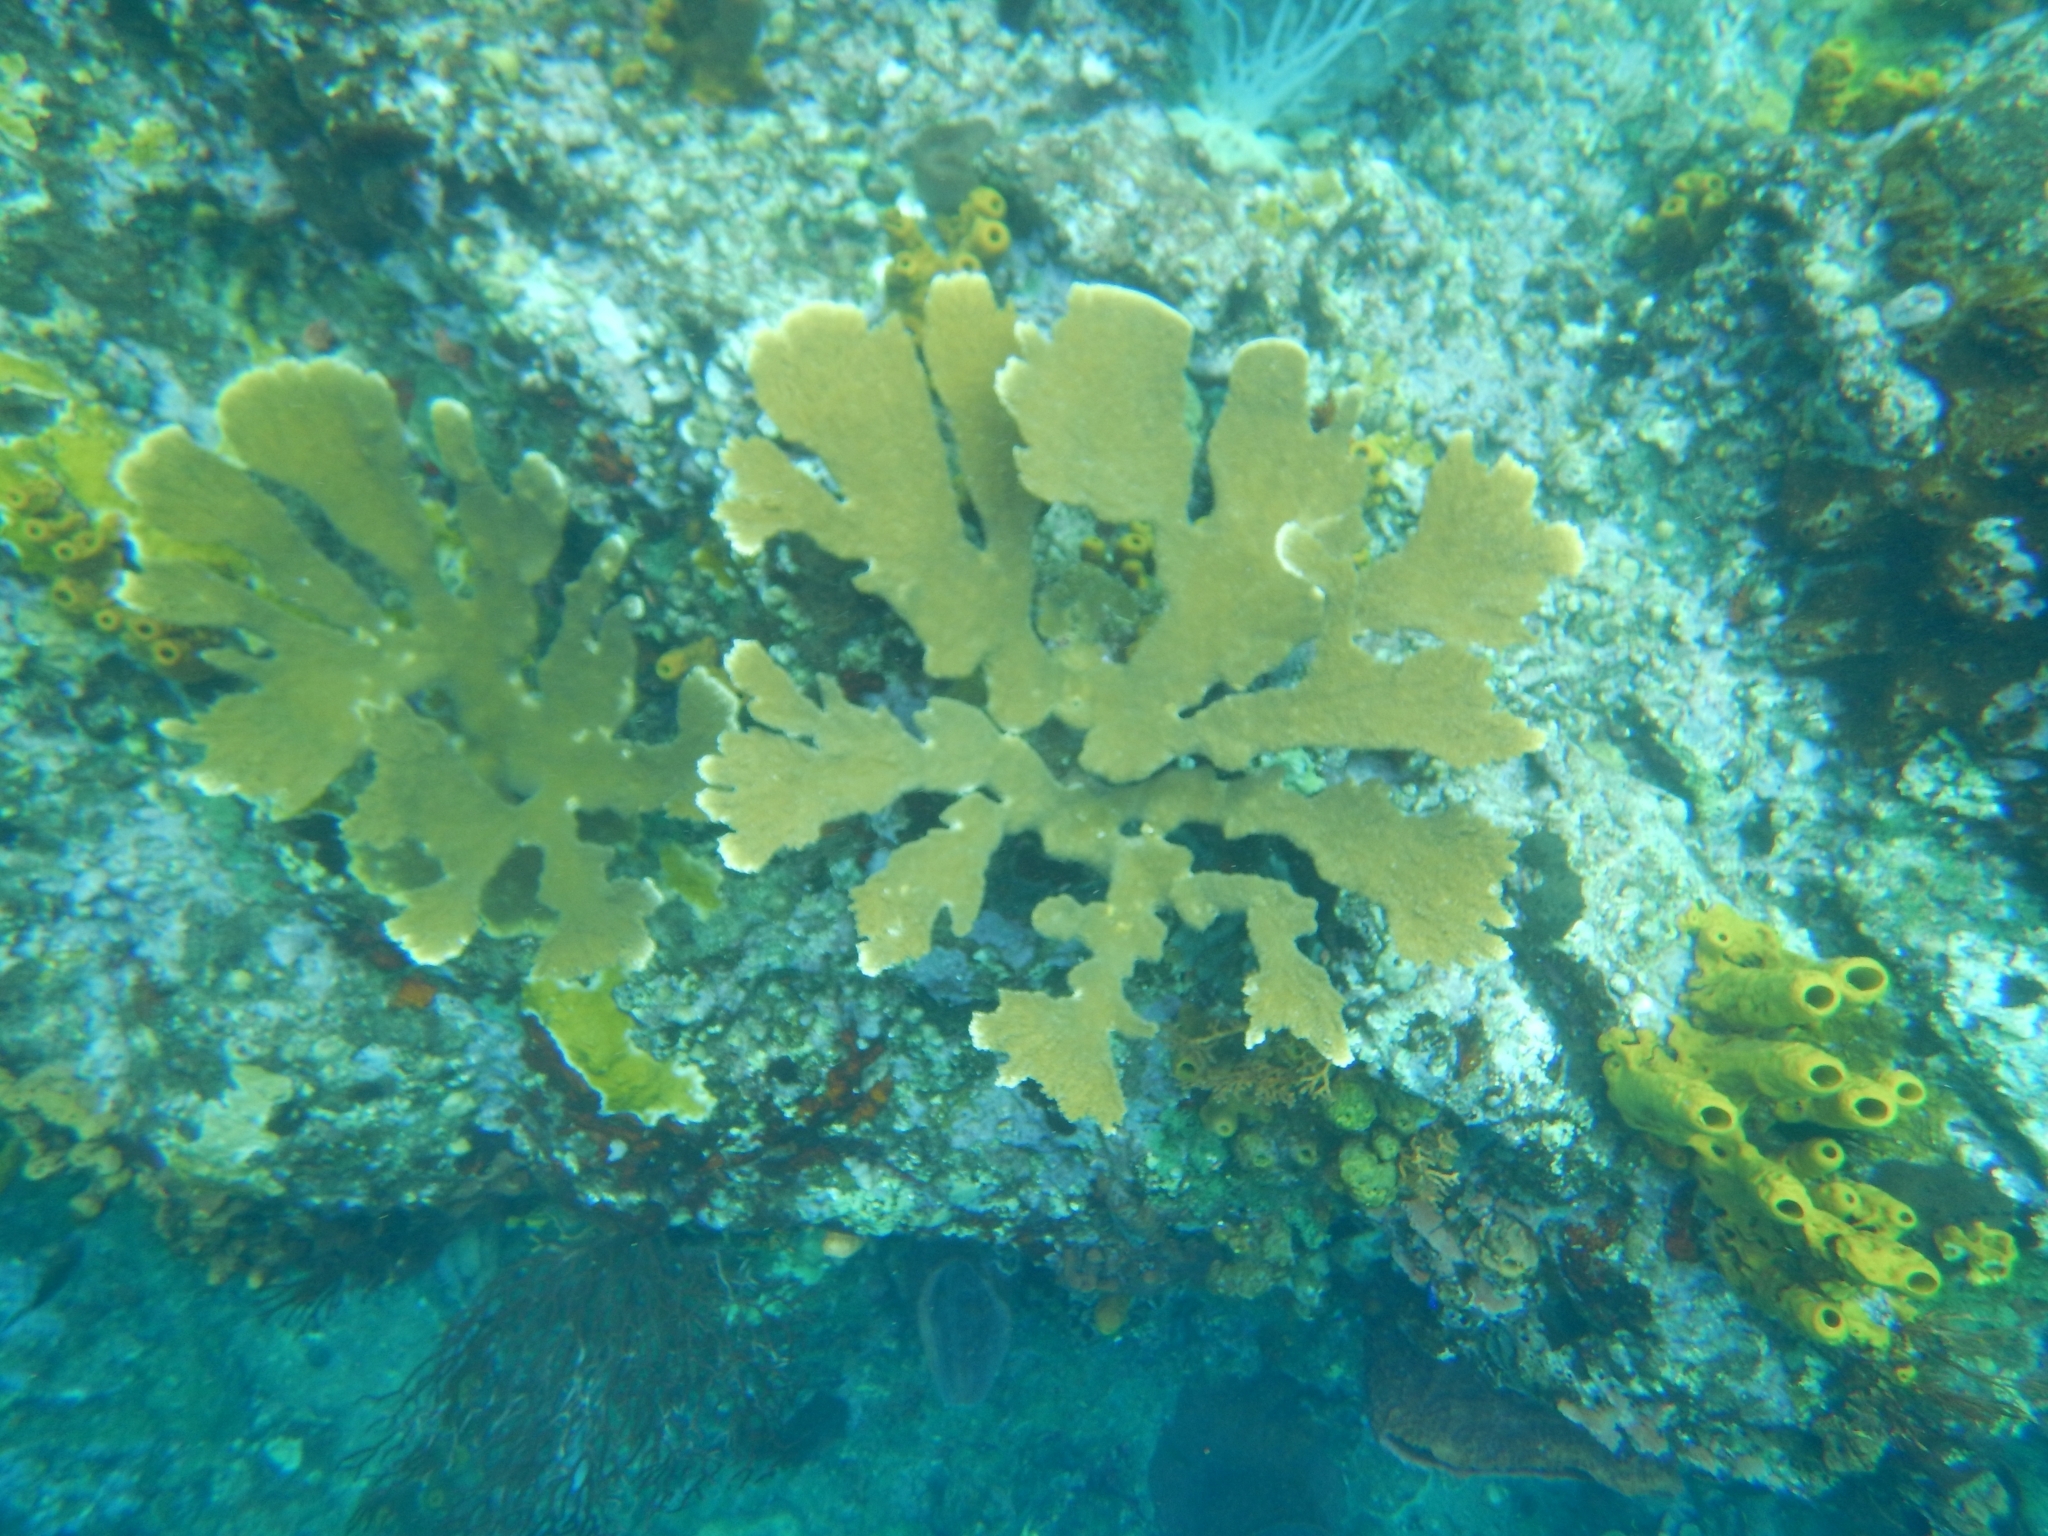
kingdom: Animalia
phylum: Cnidaria
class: Anthozoa
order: Scleractinia
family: Acroporidae
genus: Acropora
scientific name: Acropora palmata
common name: Elkhorn coral
